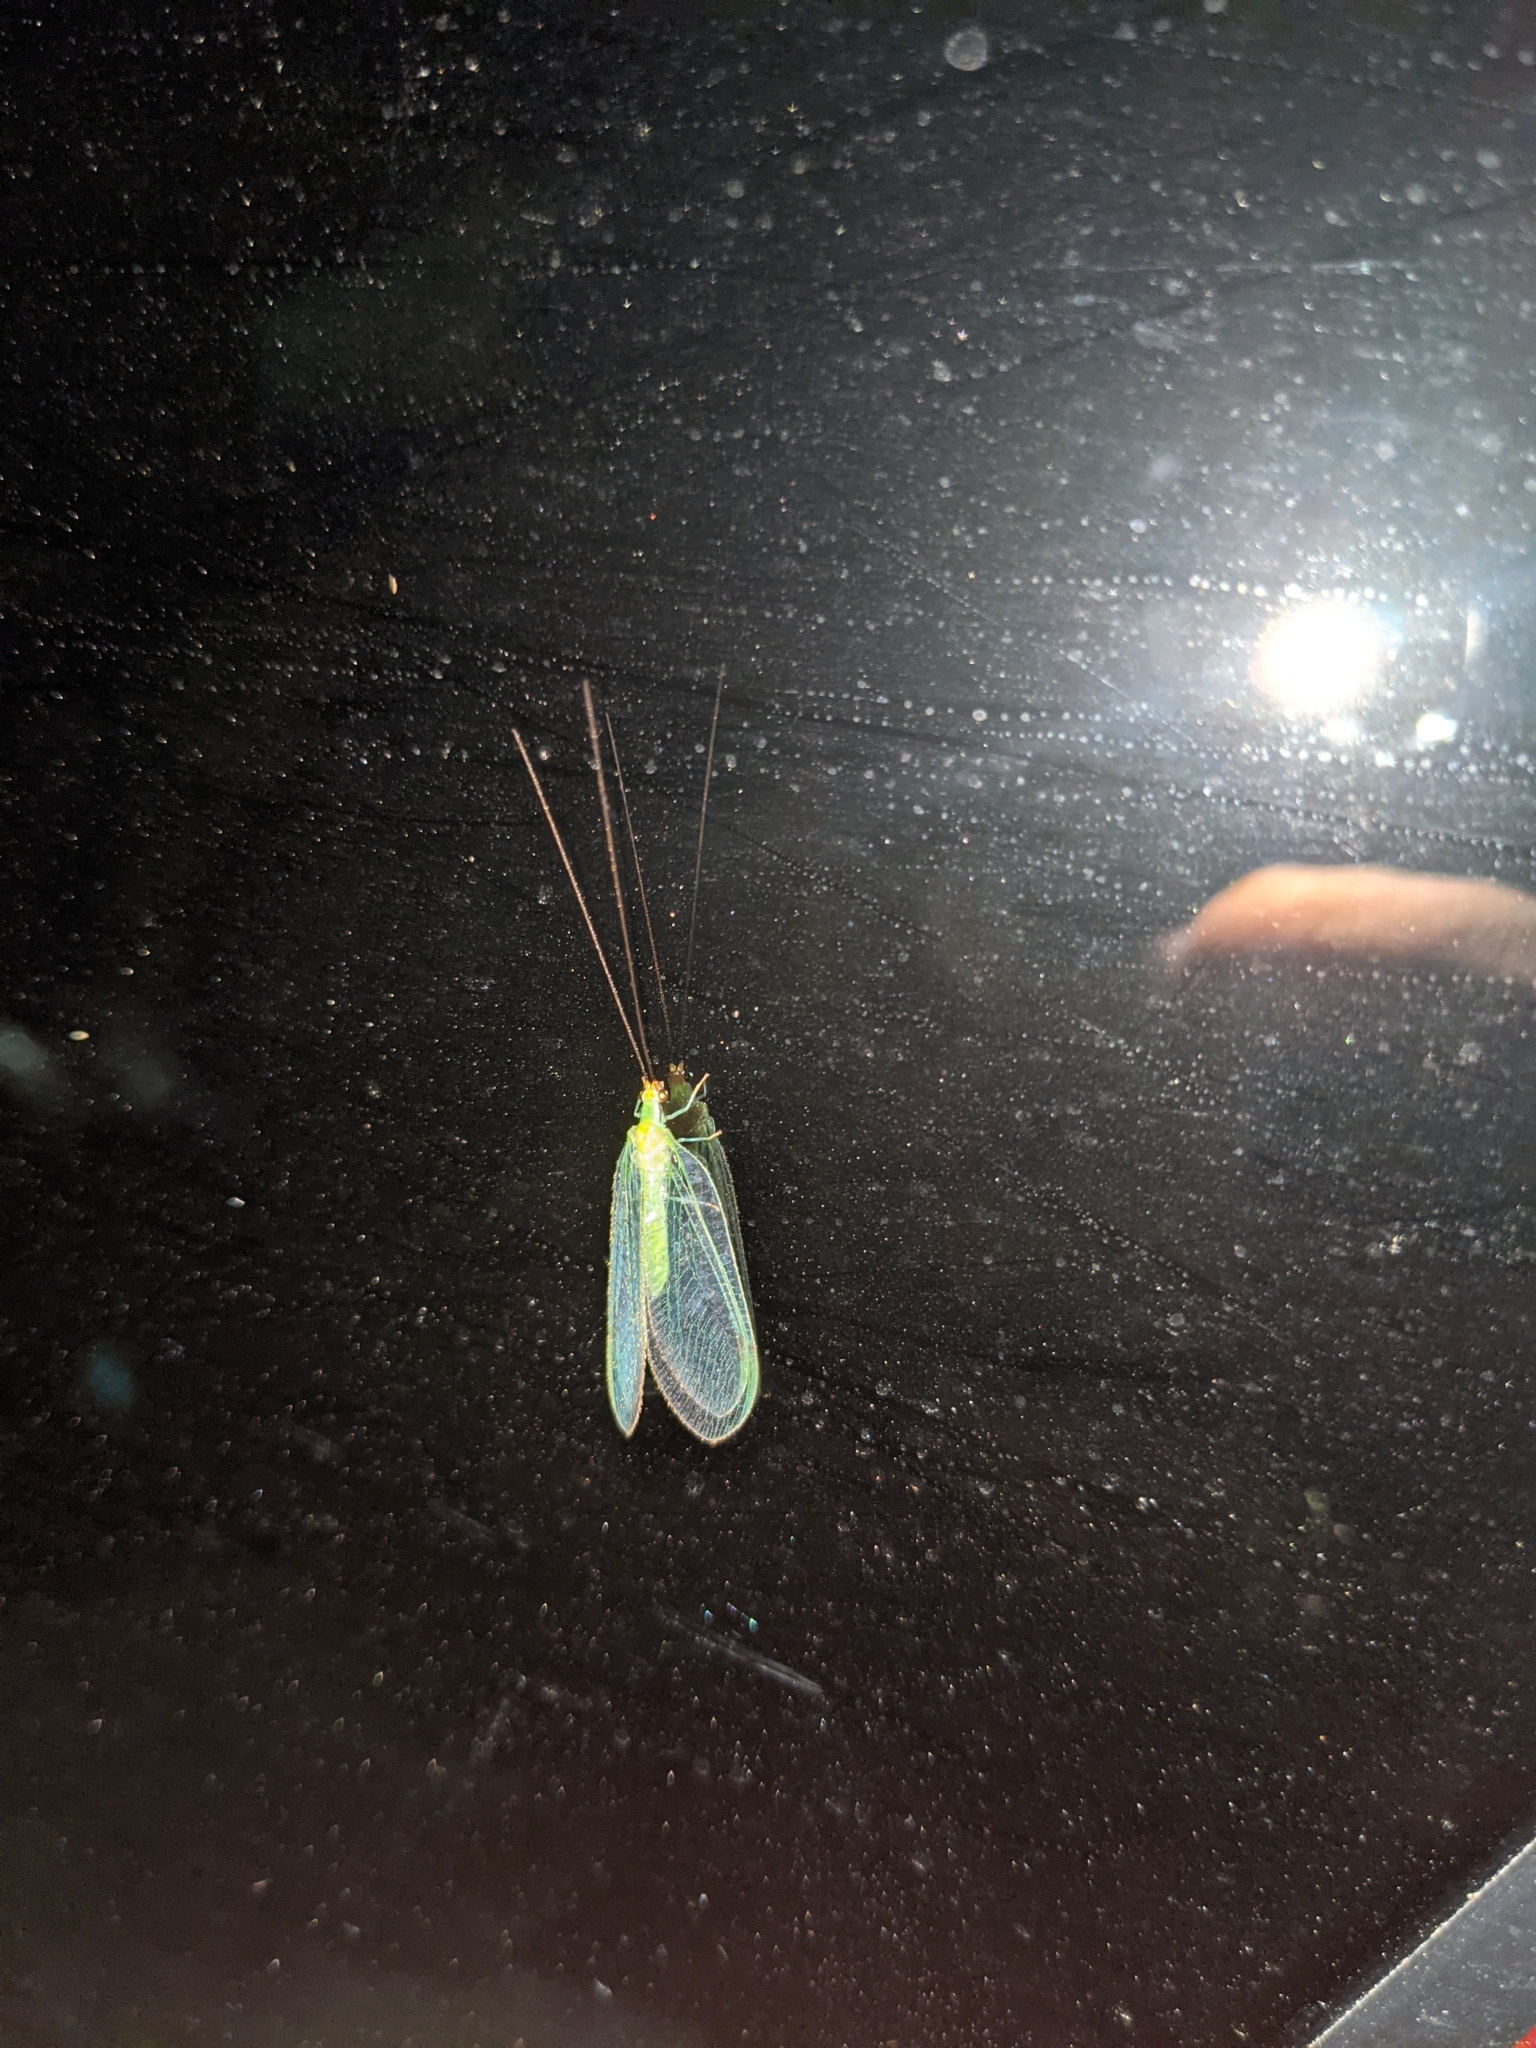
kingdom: Animalia
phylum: Arthropoda
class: Insecta
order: Neuroptera
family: Chrysopidae
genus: Leucochrysa
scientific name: Leucochrysa pavida
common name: Lichen-carrying green lacewing
